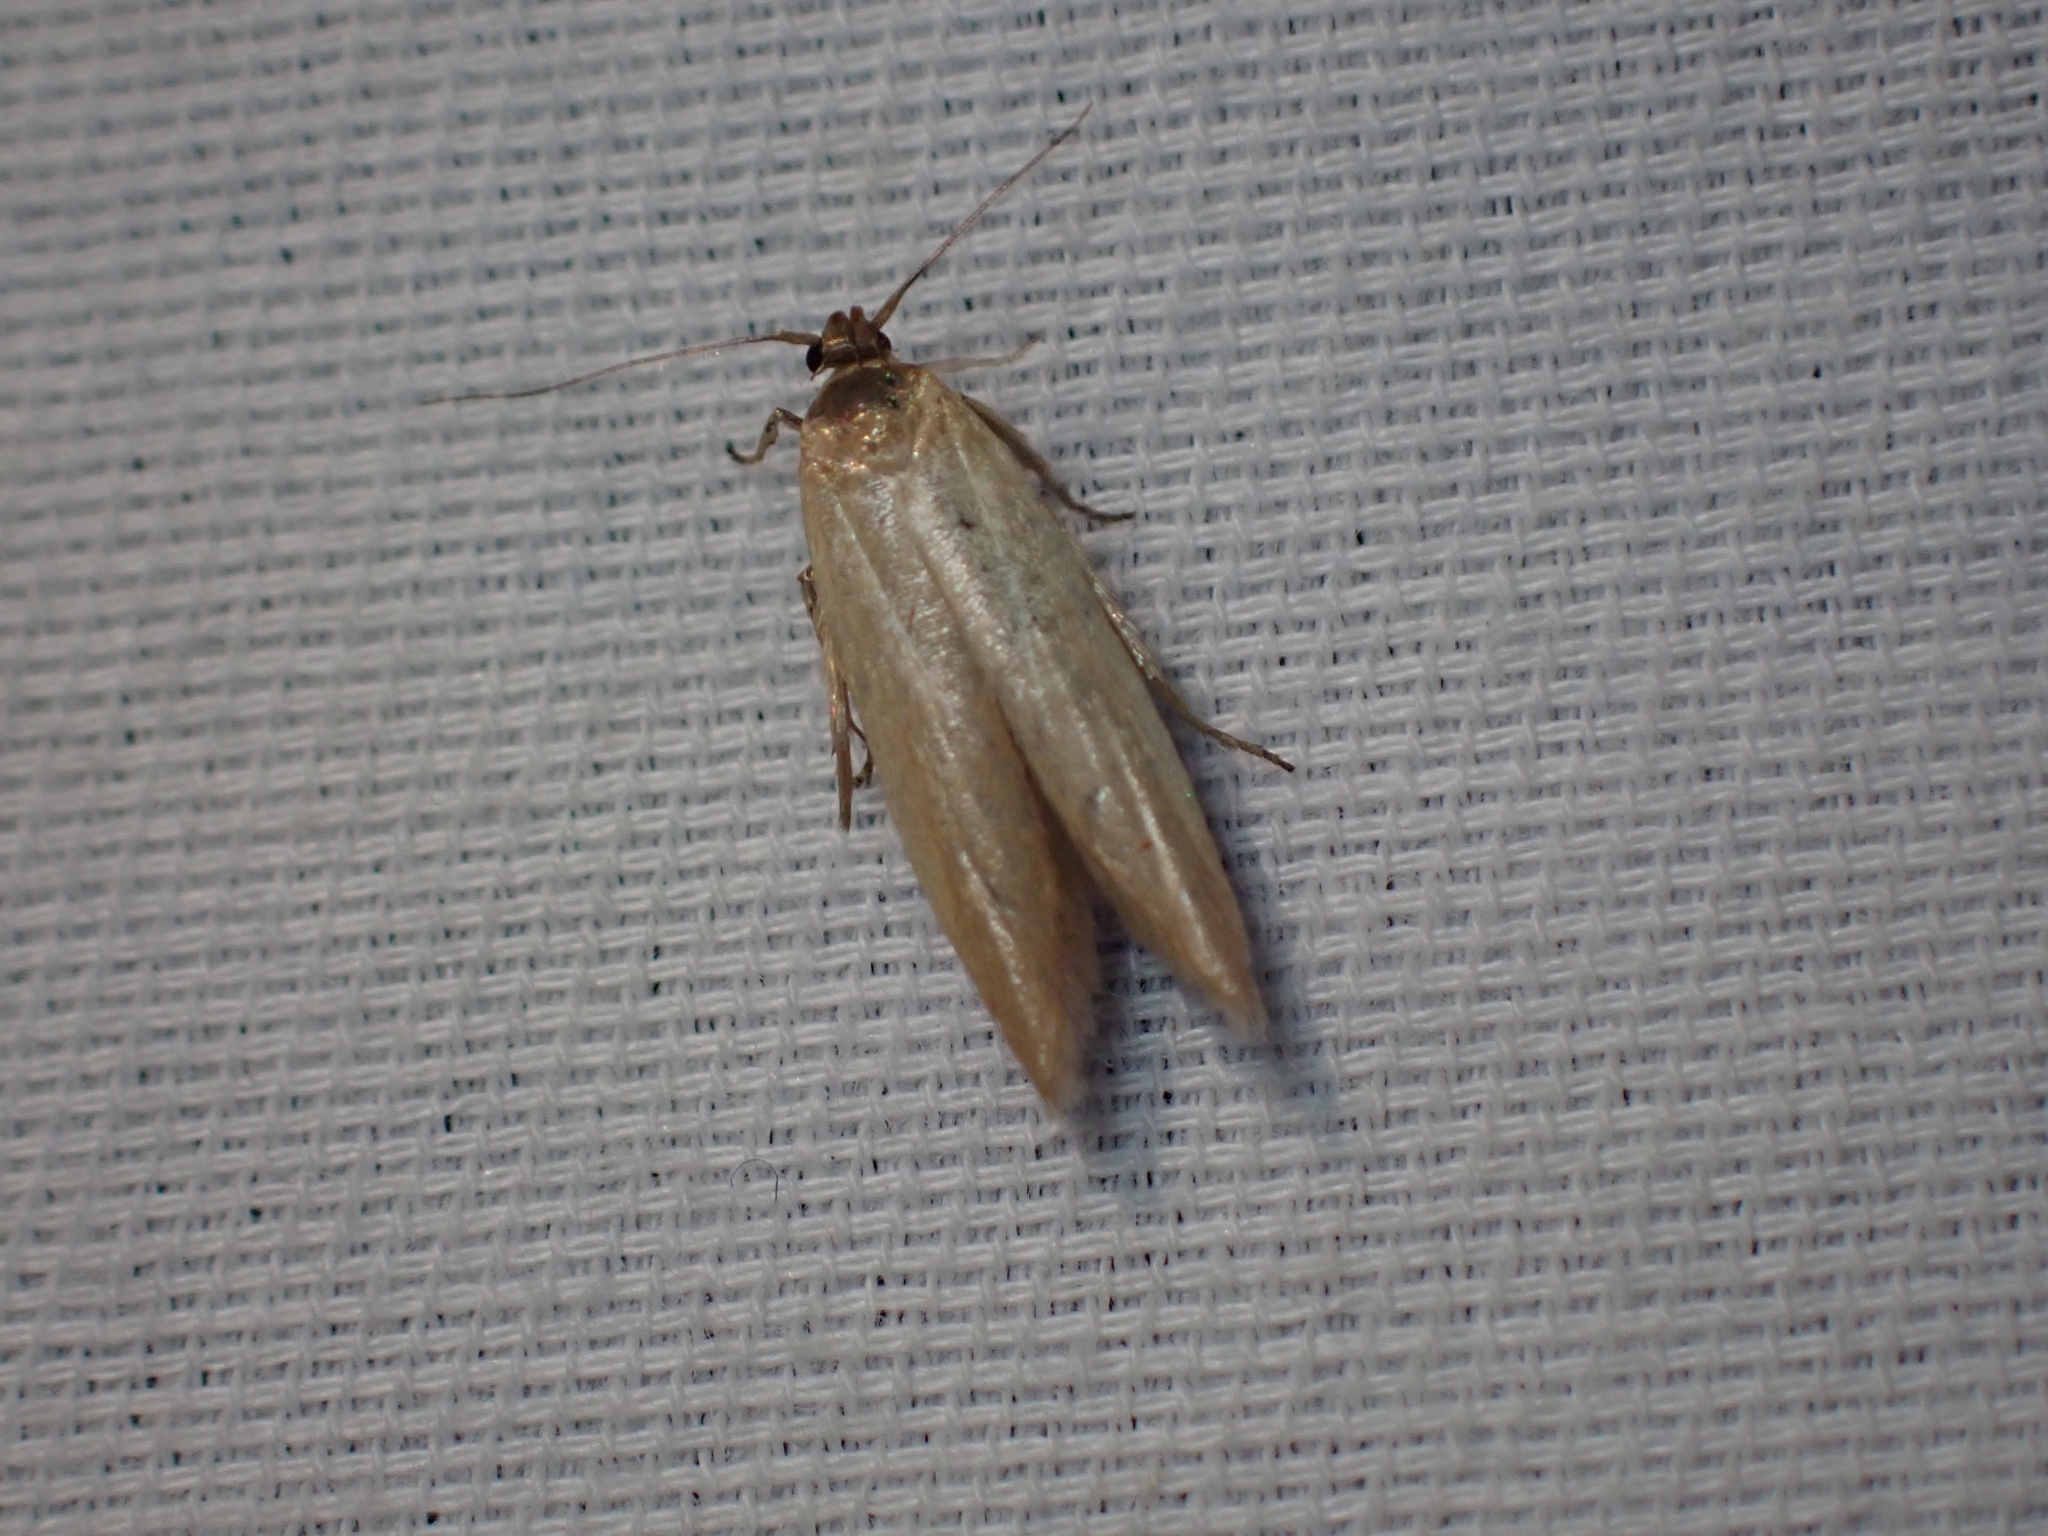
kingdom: Animalia
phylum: Arthropoda
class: Insecta
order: Lepidoptera
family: Blastobasidae
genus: Holcocerina
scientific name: Holcocerina immaculella
